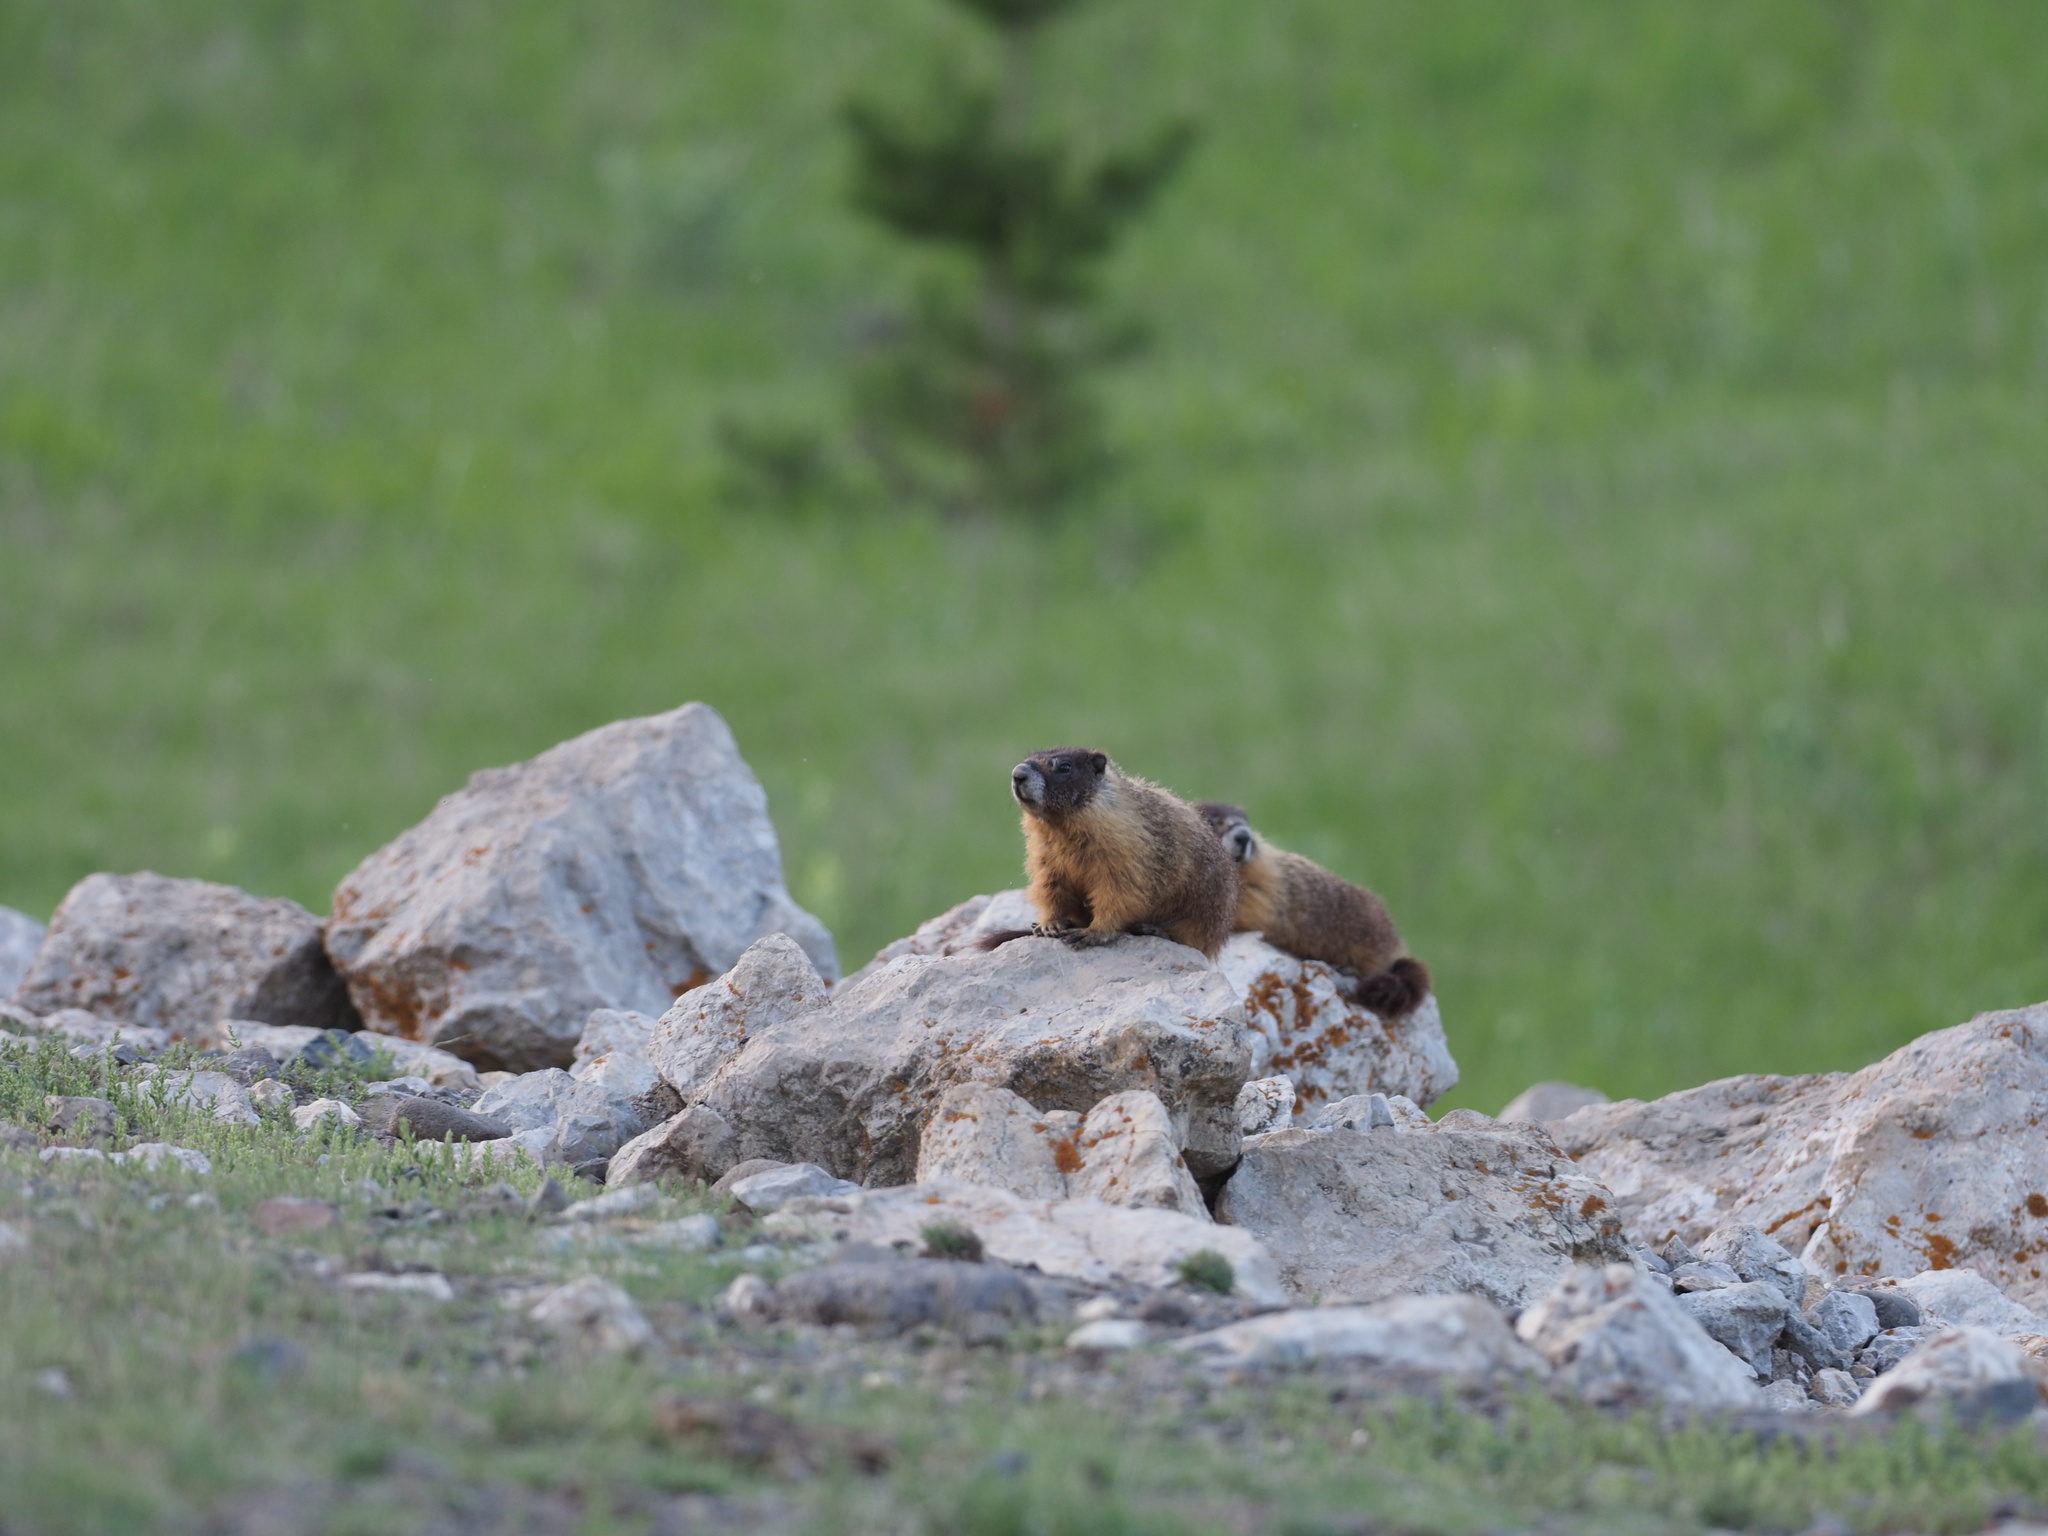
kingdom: Animalia
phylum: Chordata
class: Mammalia
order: Rodentia
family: Sciuridae
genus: Marmota
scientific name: Marmota flaviventris
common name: Yellow-bellied marmot
